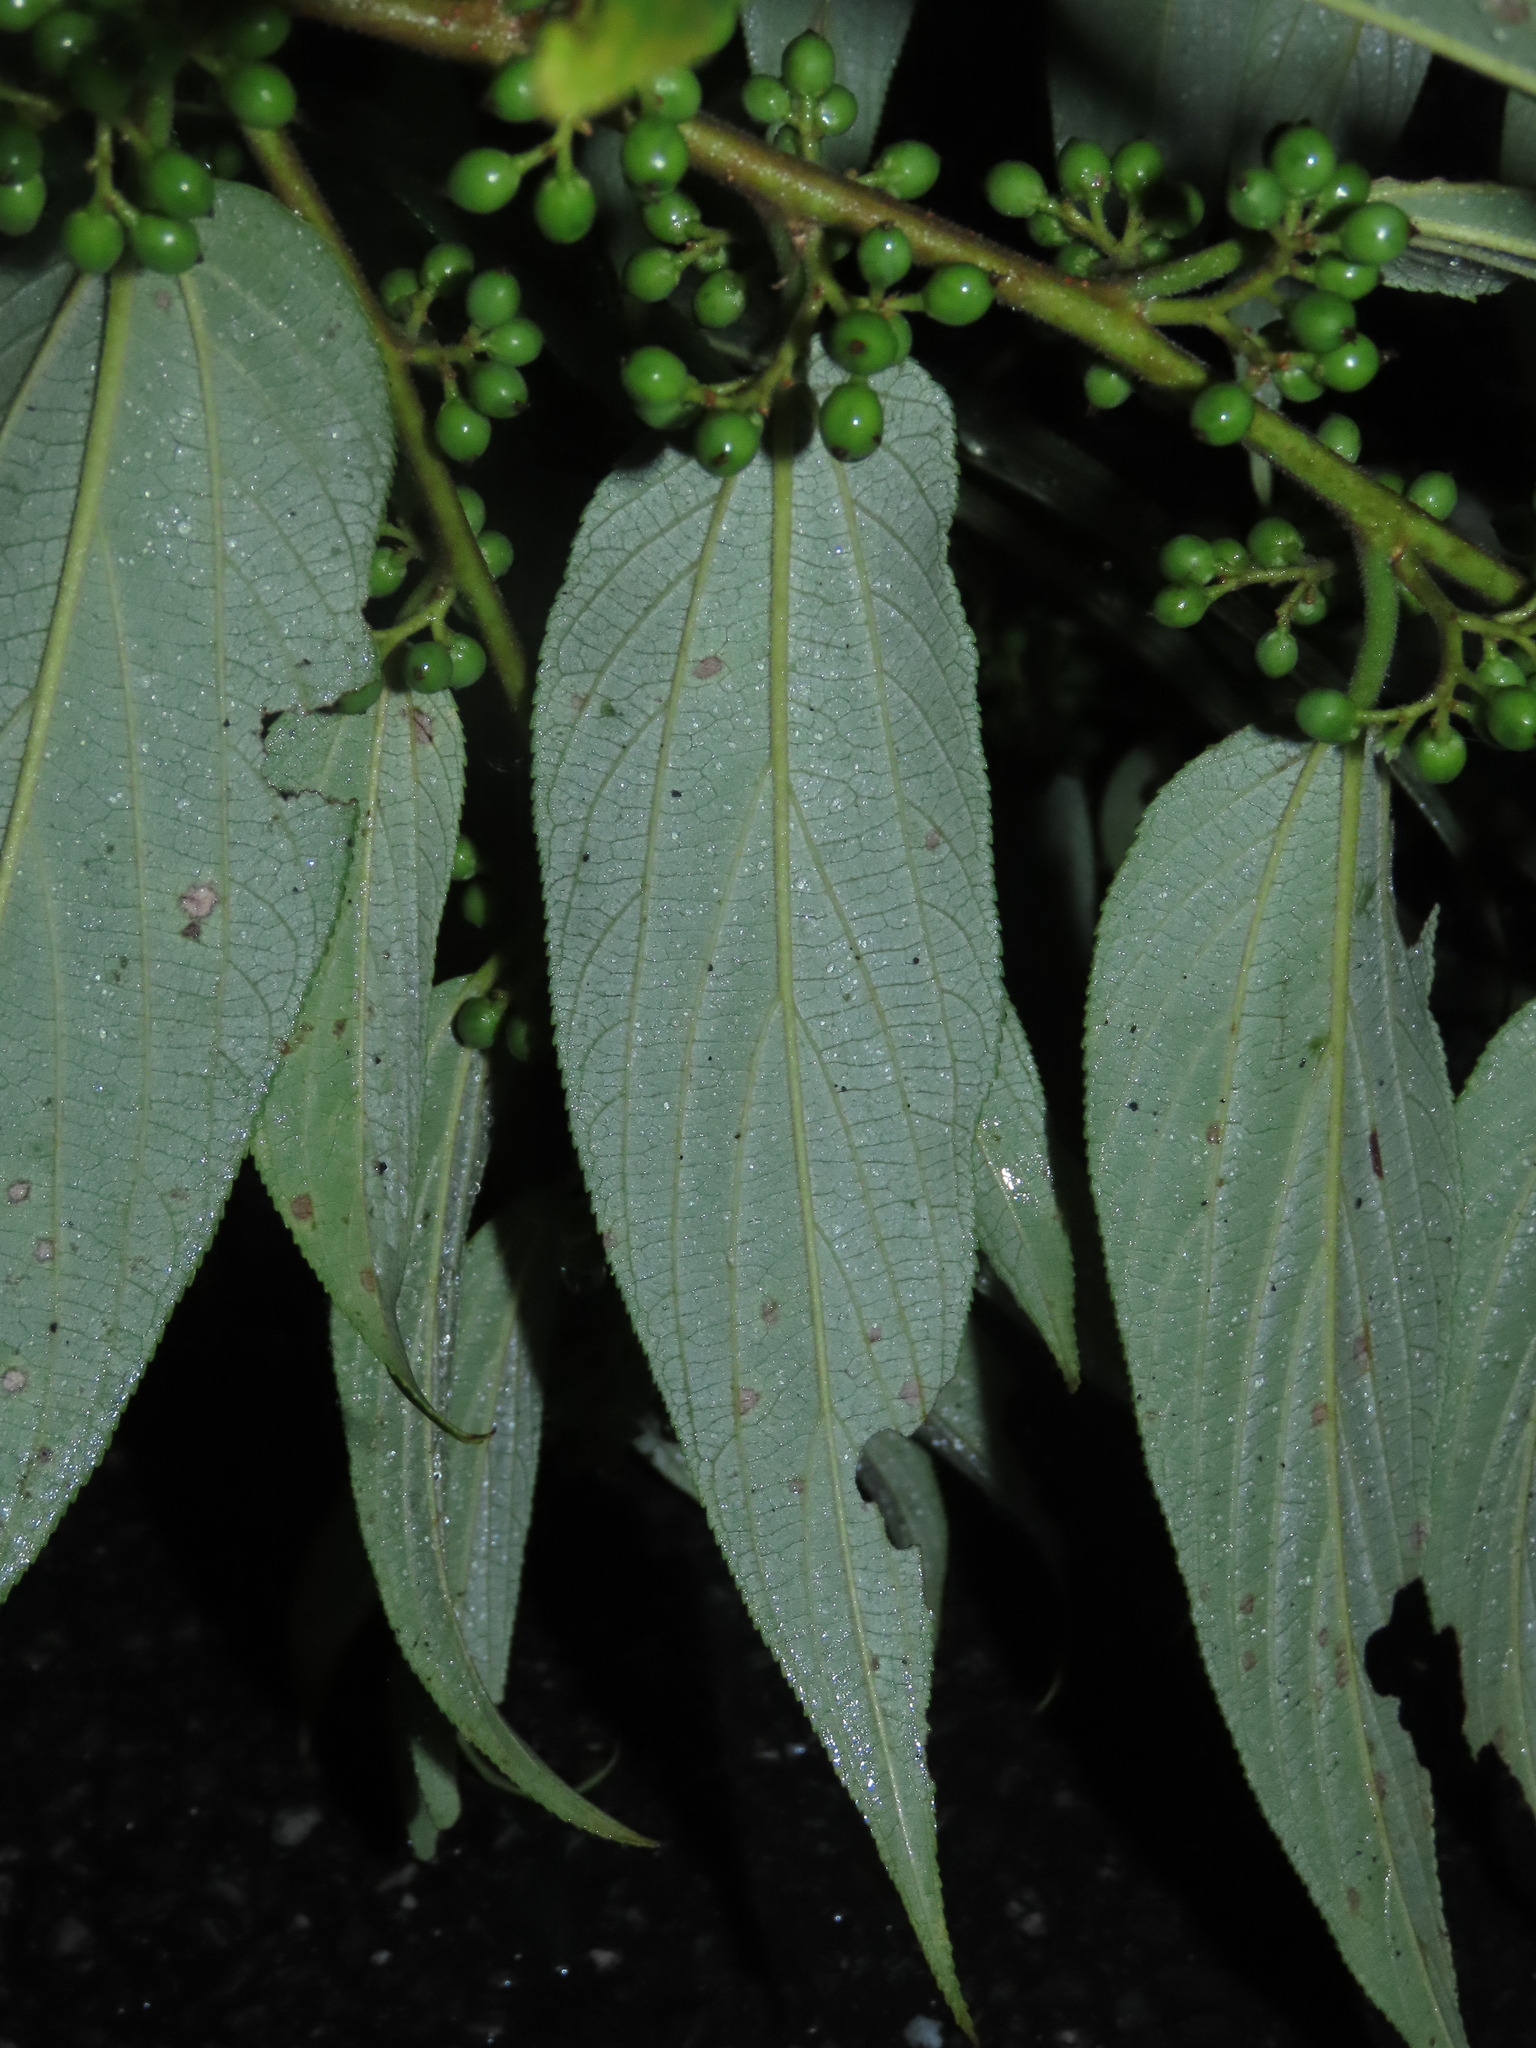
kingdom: Plantae
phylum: Tracheophyta
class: Magnoliopsida
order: Rosales
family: Cannabaceae
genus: Trema
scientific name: Trema orientale
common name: Indian charcoal tree
